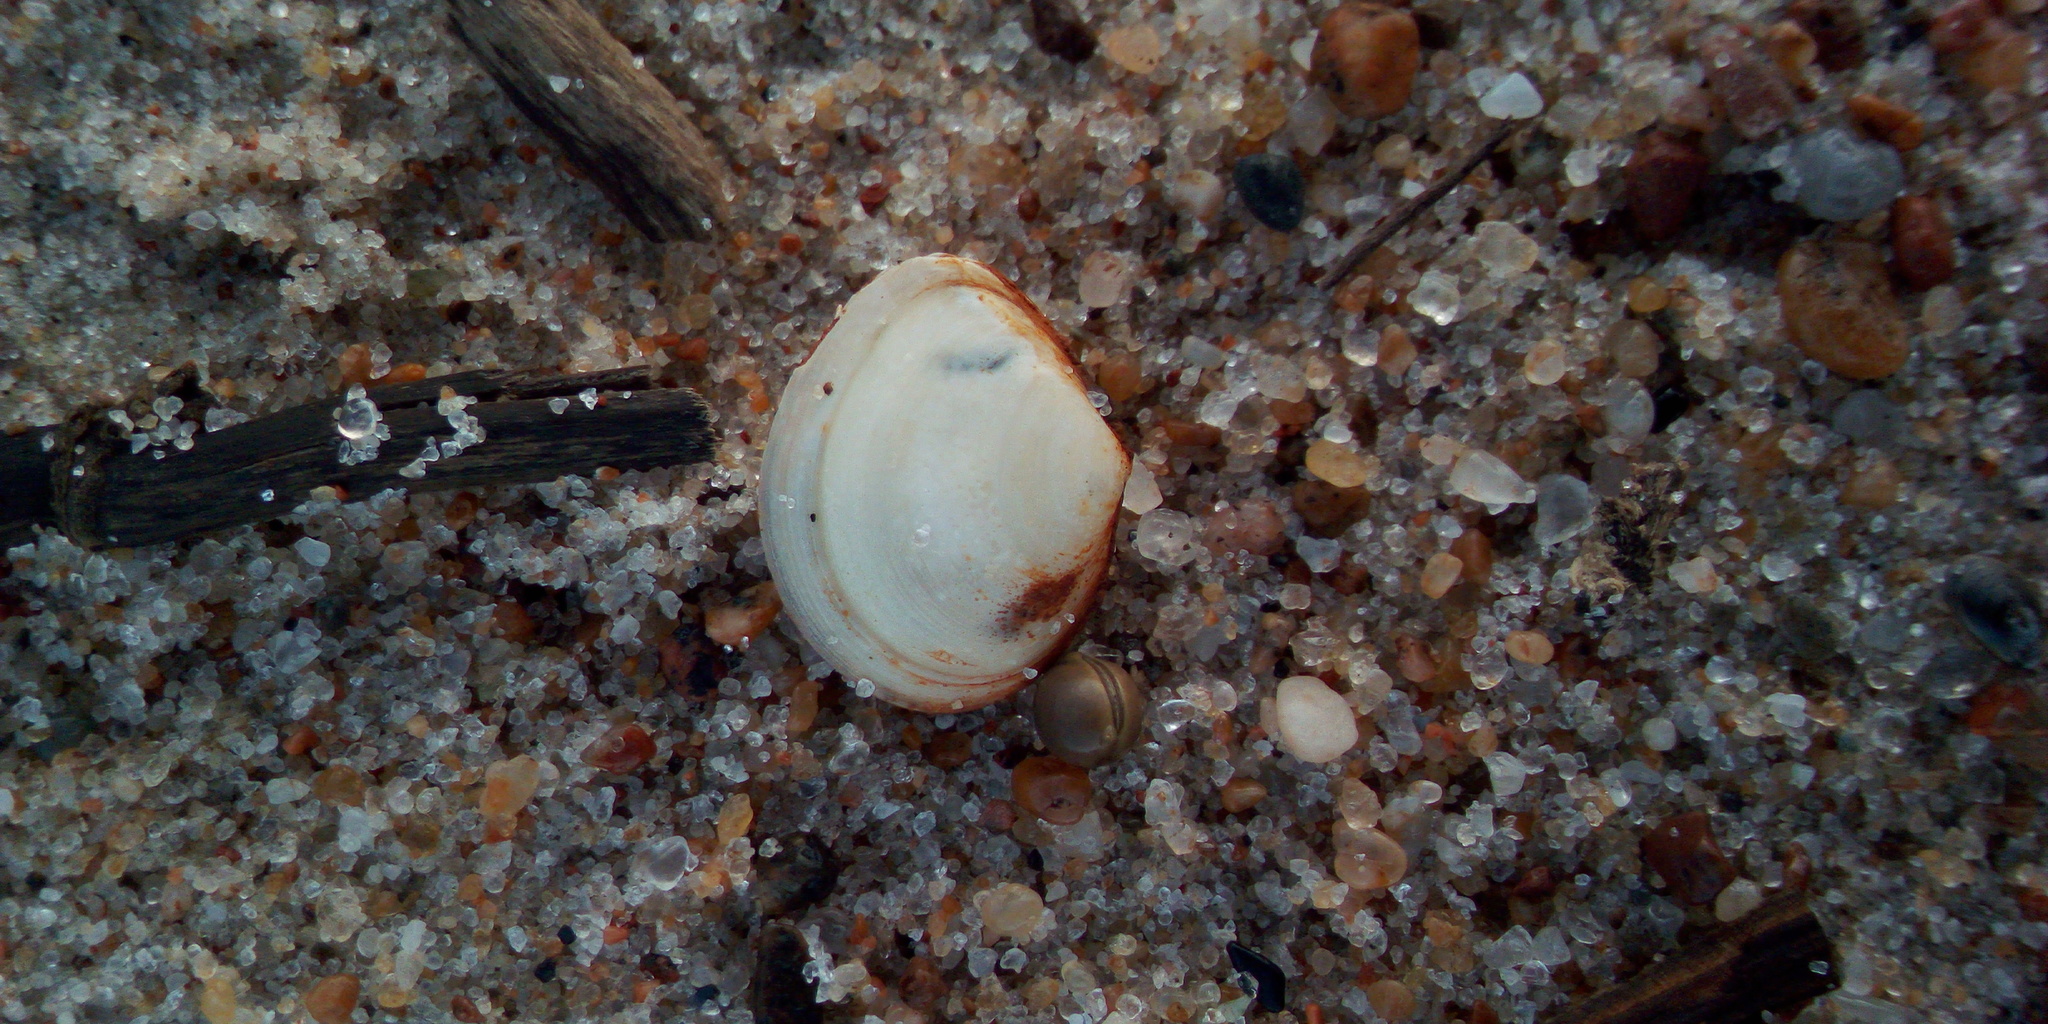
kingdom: Animalia
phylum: Mollusca
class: Bivalvia
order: Cardiida
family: Tellinidae
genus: Macoma
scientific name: Macoma balthica
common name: Baltic tellin
